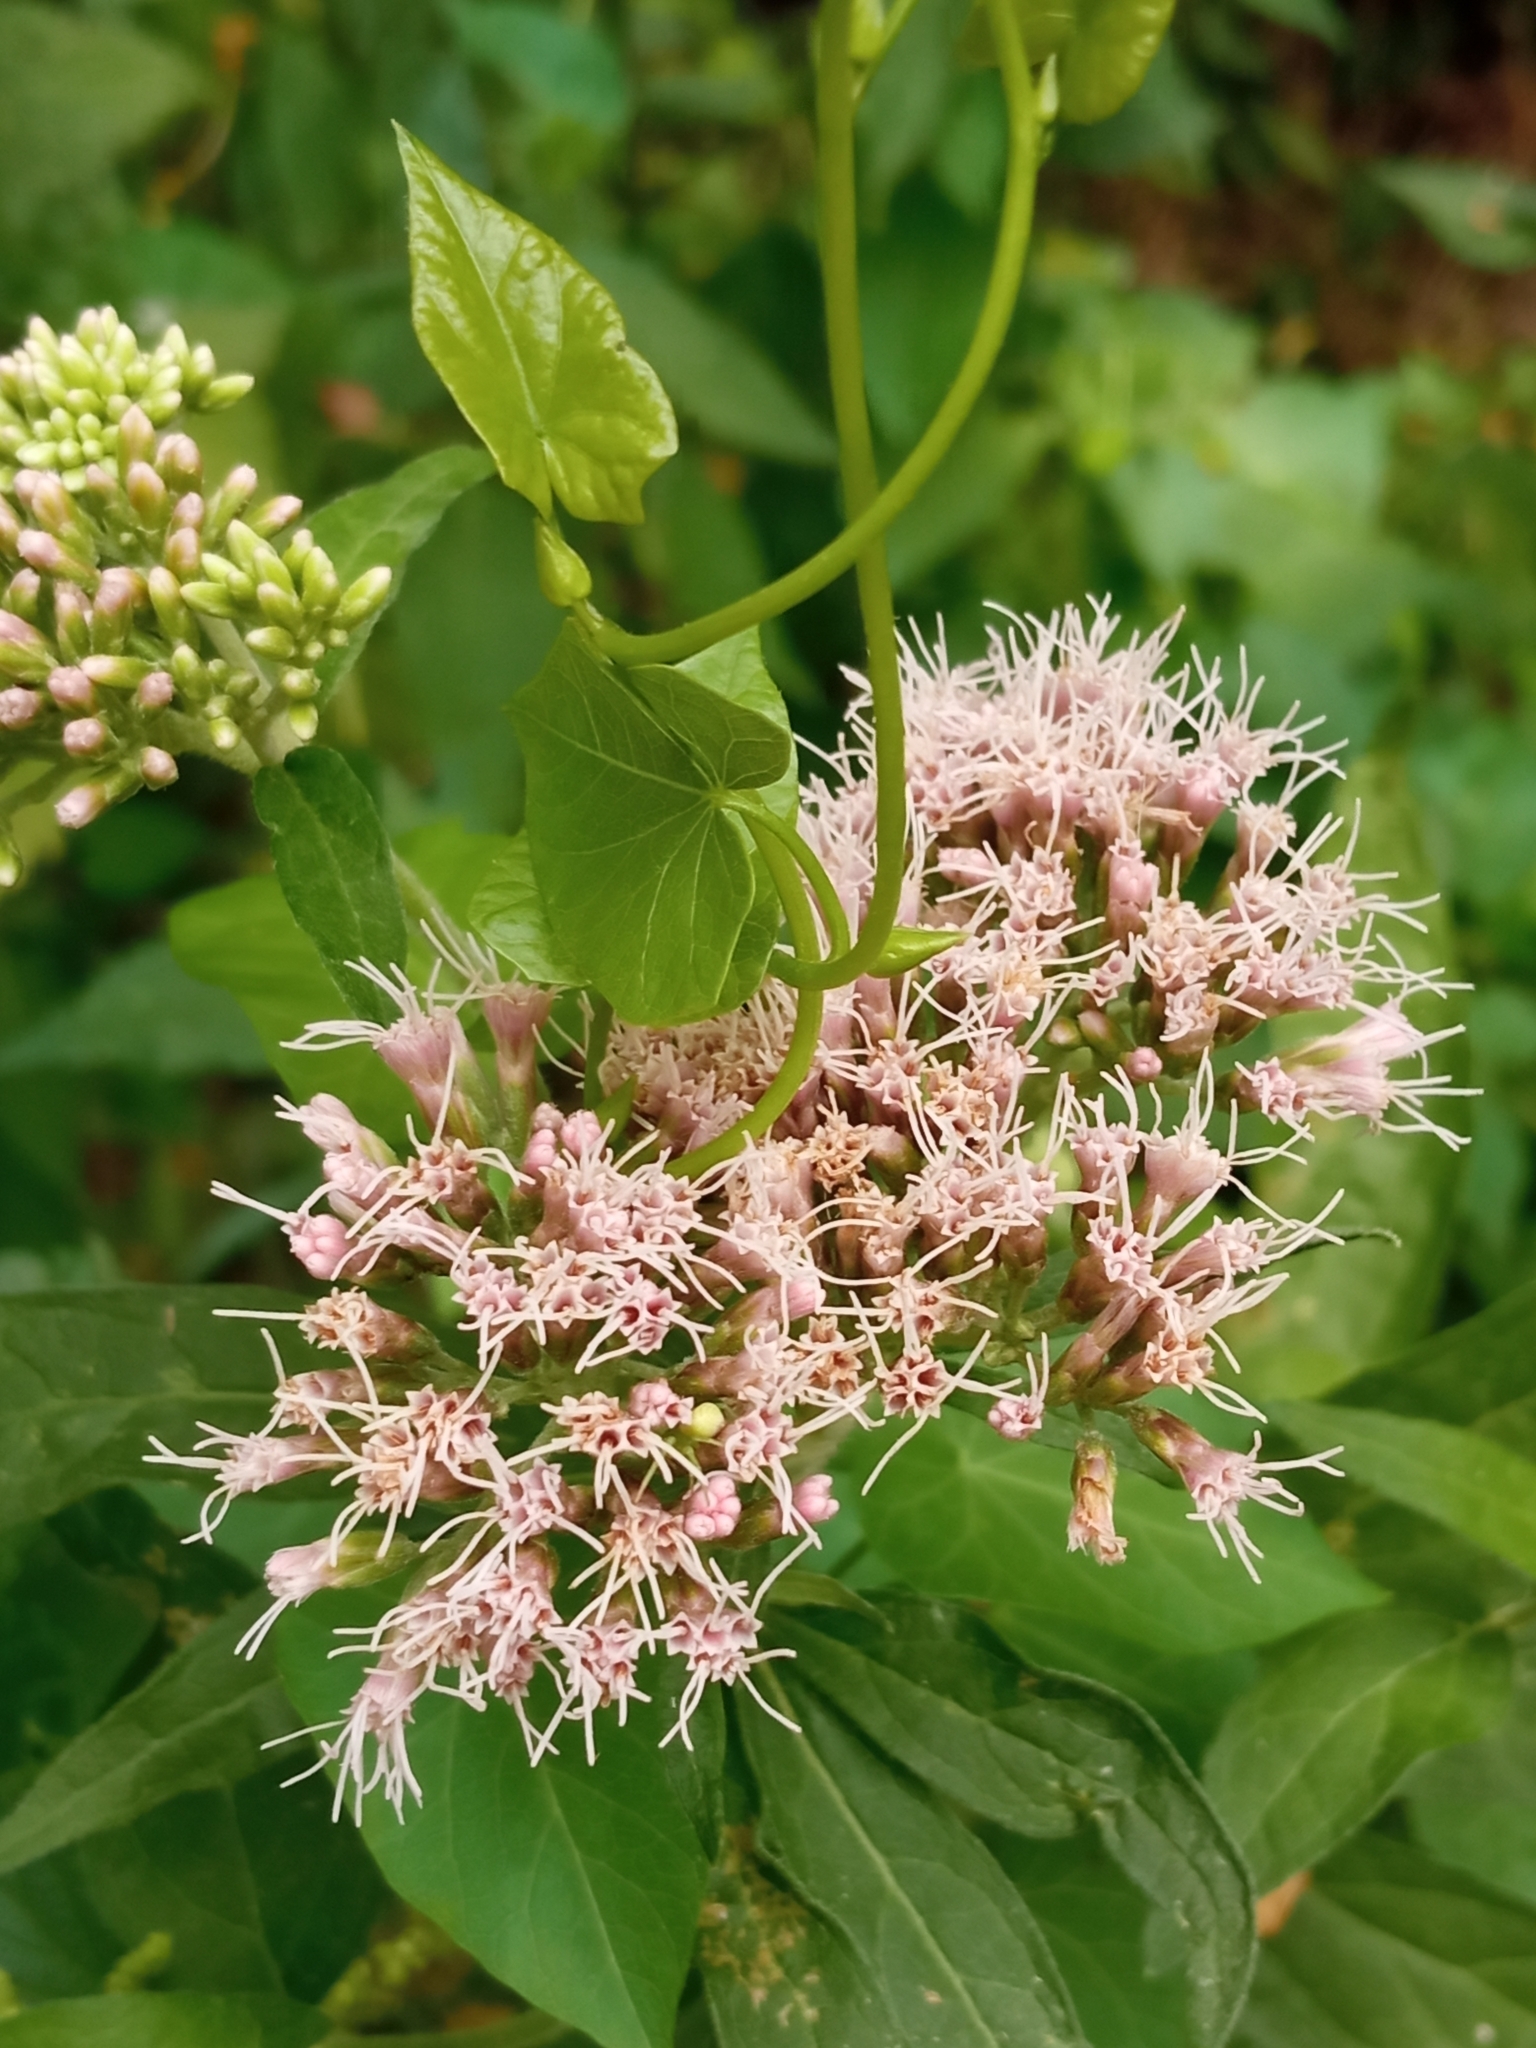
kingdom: Plantae
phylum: Tracheophyta
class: Magnoliopsida
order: Asterales
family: Asteraceae
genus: Eupatorium
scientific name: Eupatorium cannabinum
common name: Hemp-agrimony
